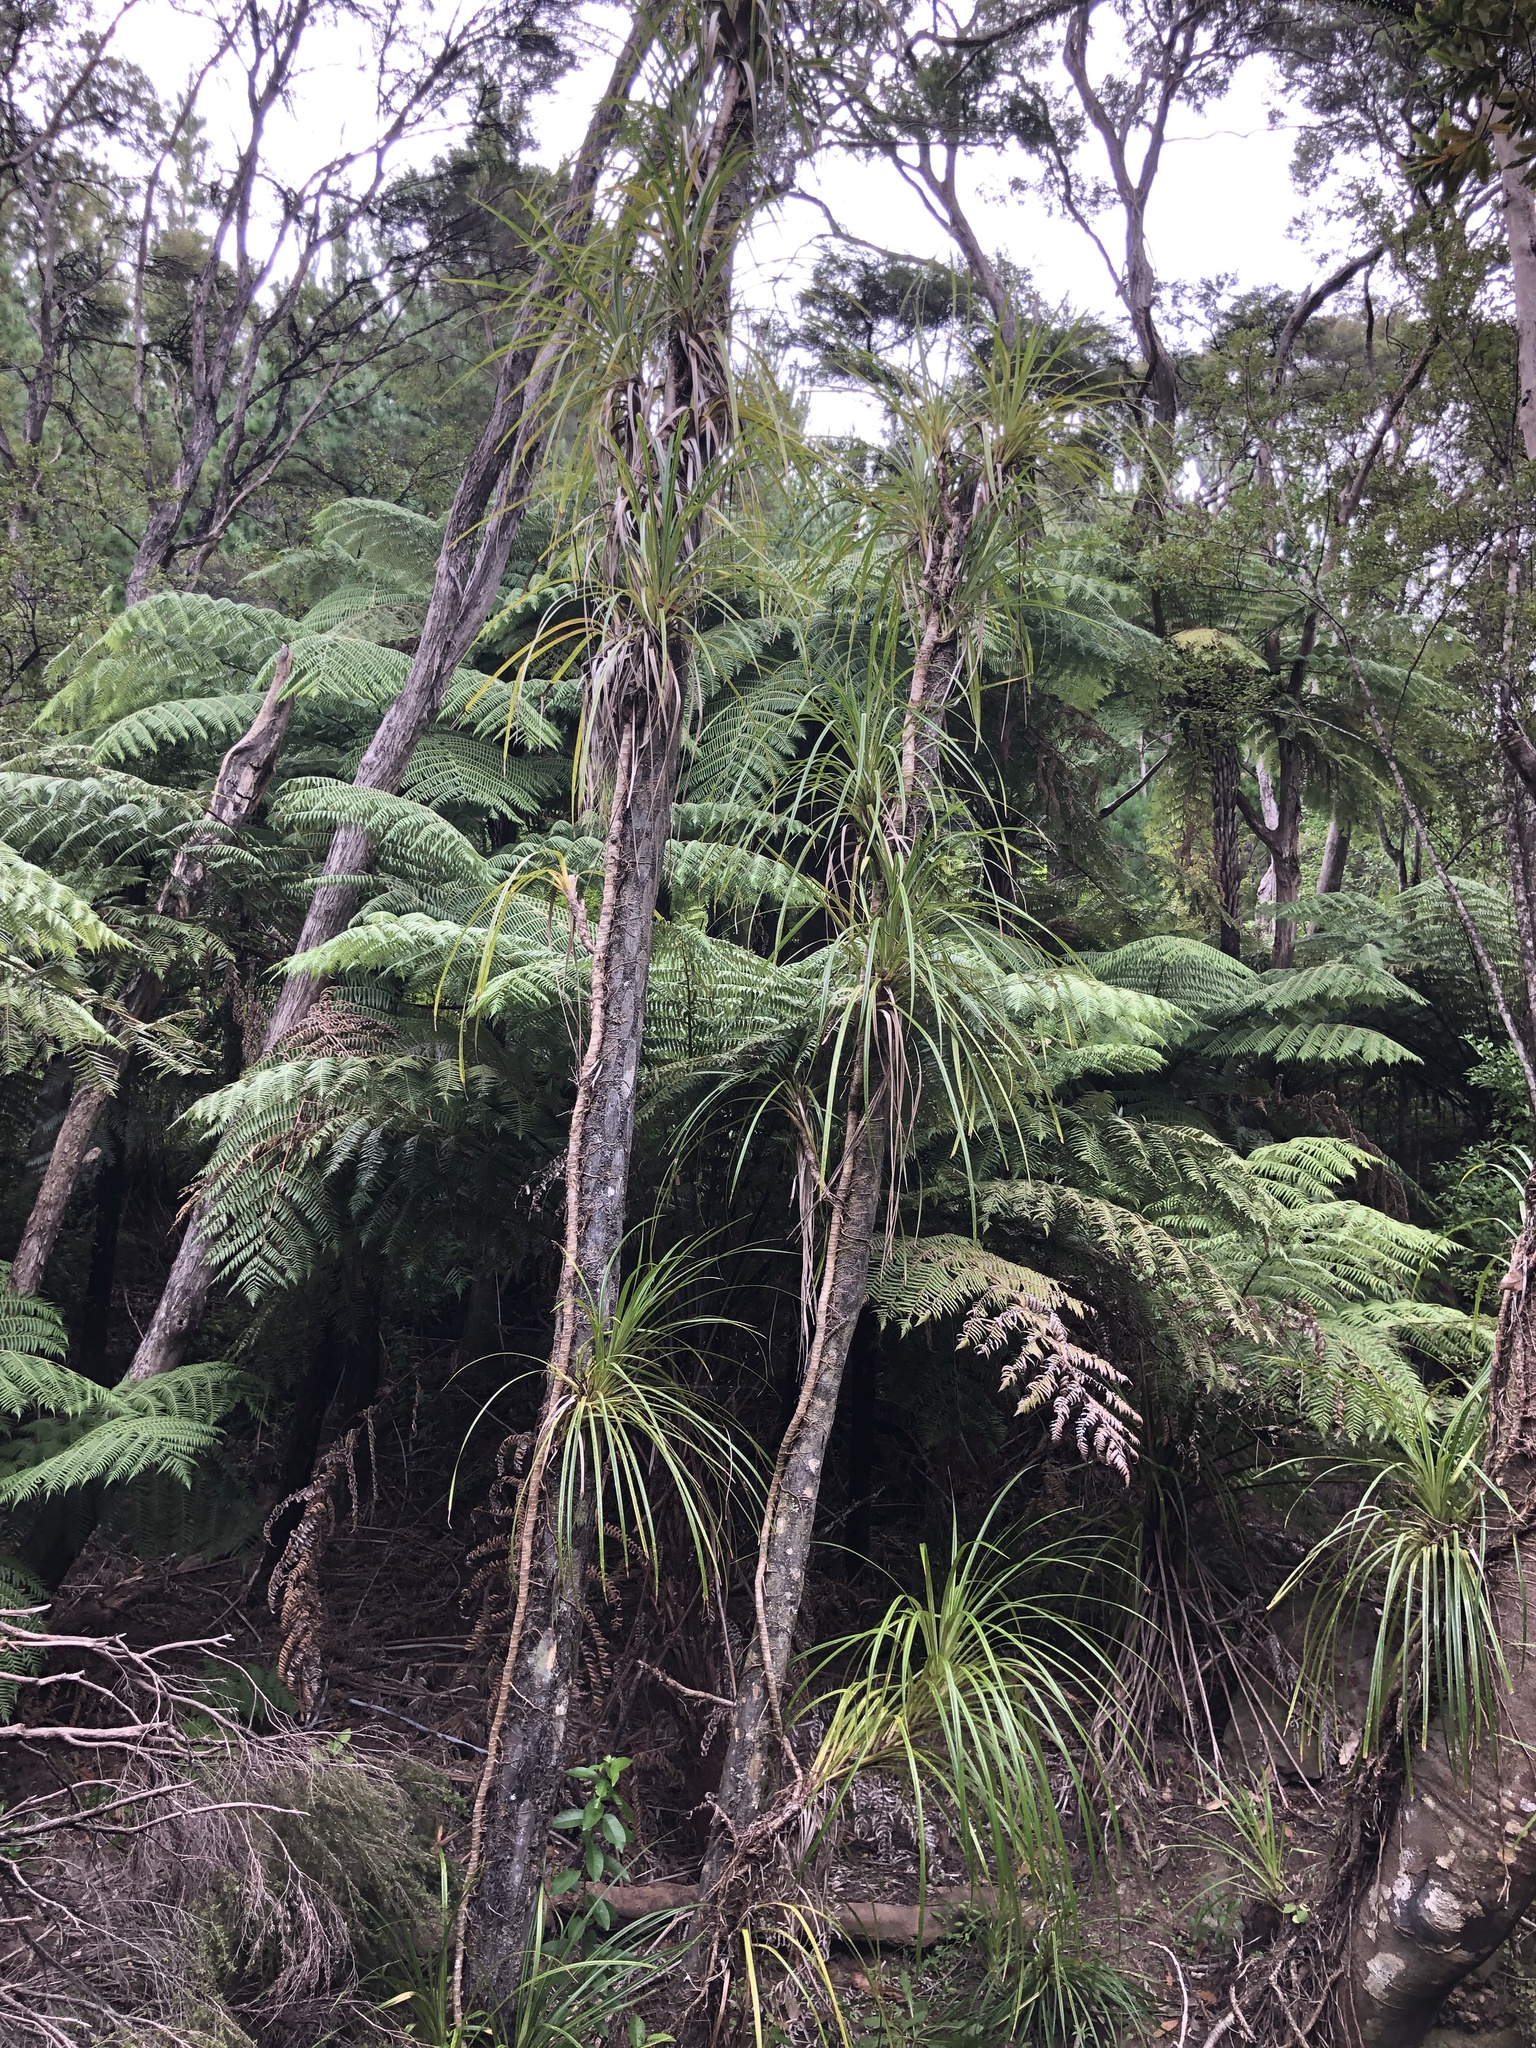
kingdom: Plantae
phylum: Tracheophyta
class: Liliopsida
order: Pandanales
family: Pandanaceae
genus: Freycinetia
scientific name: Freycinetia banksii
